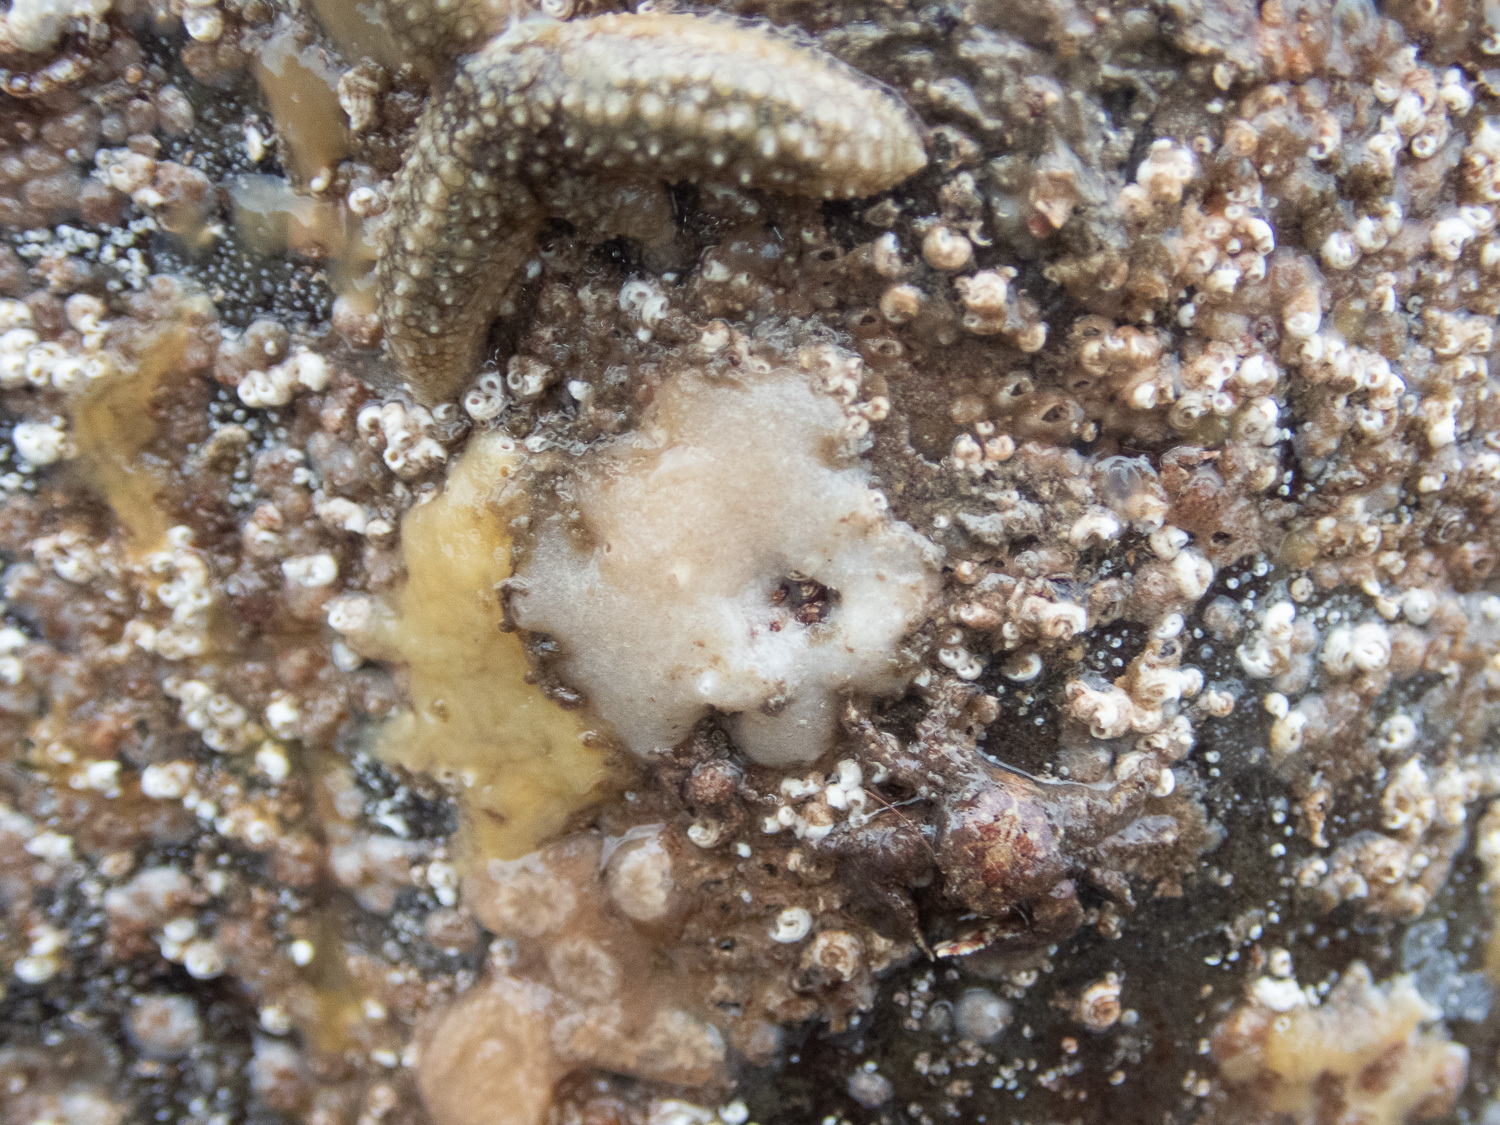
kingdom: Animalia
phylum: Porifera
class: Calcarea
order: Baerida
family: Baeriidae
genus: Leuconia
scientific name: Leuconia nivea
